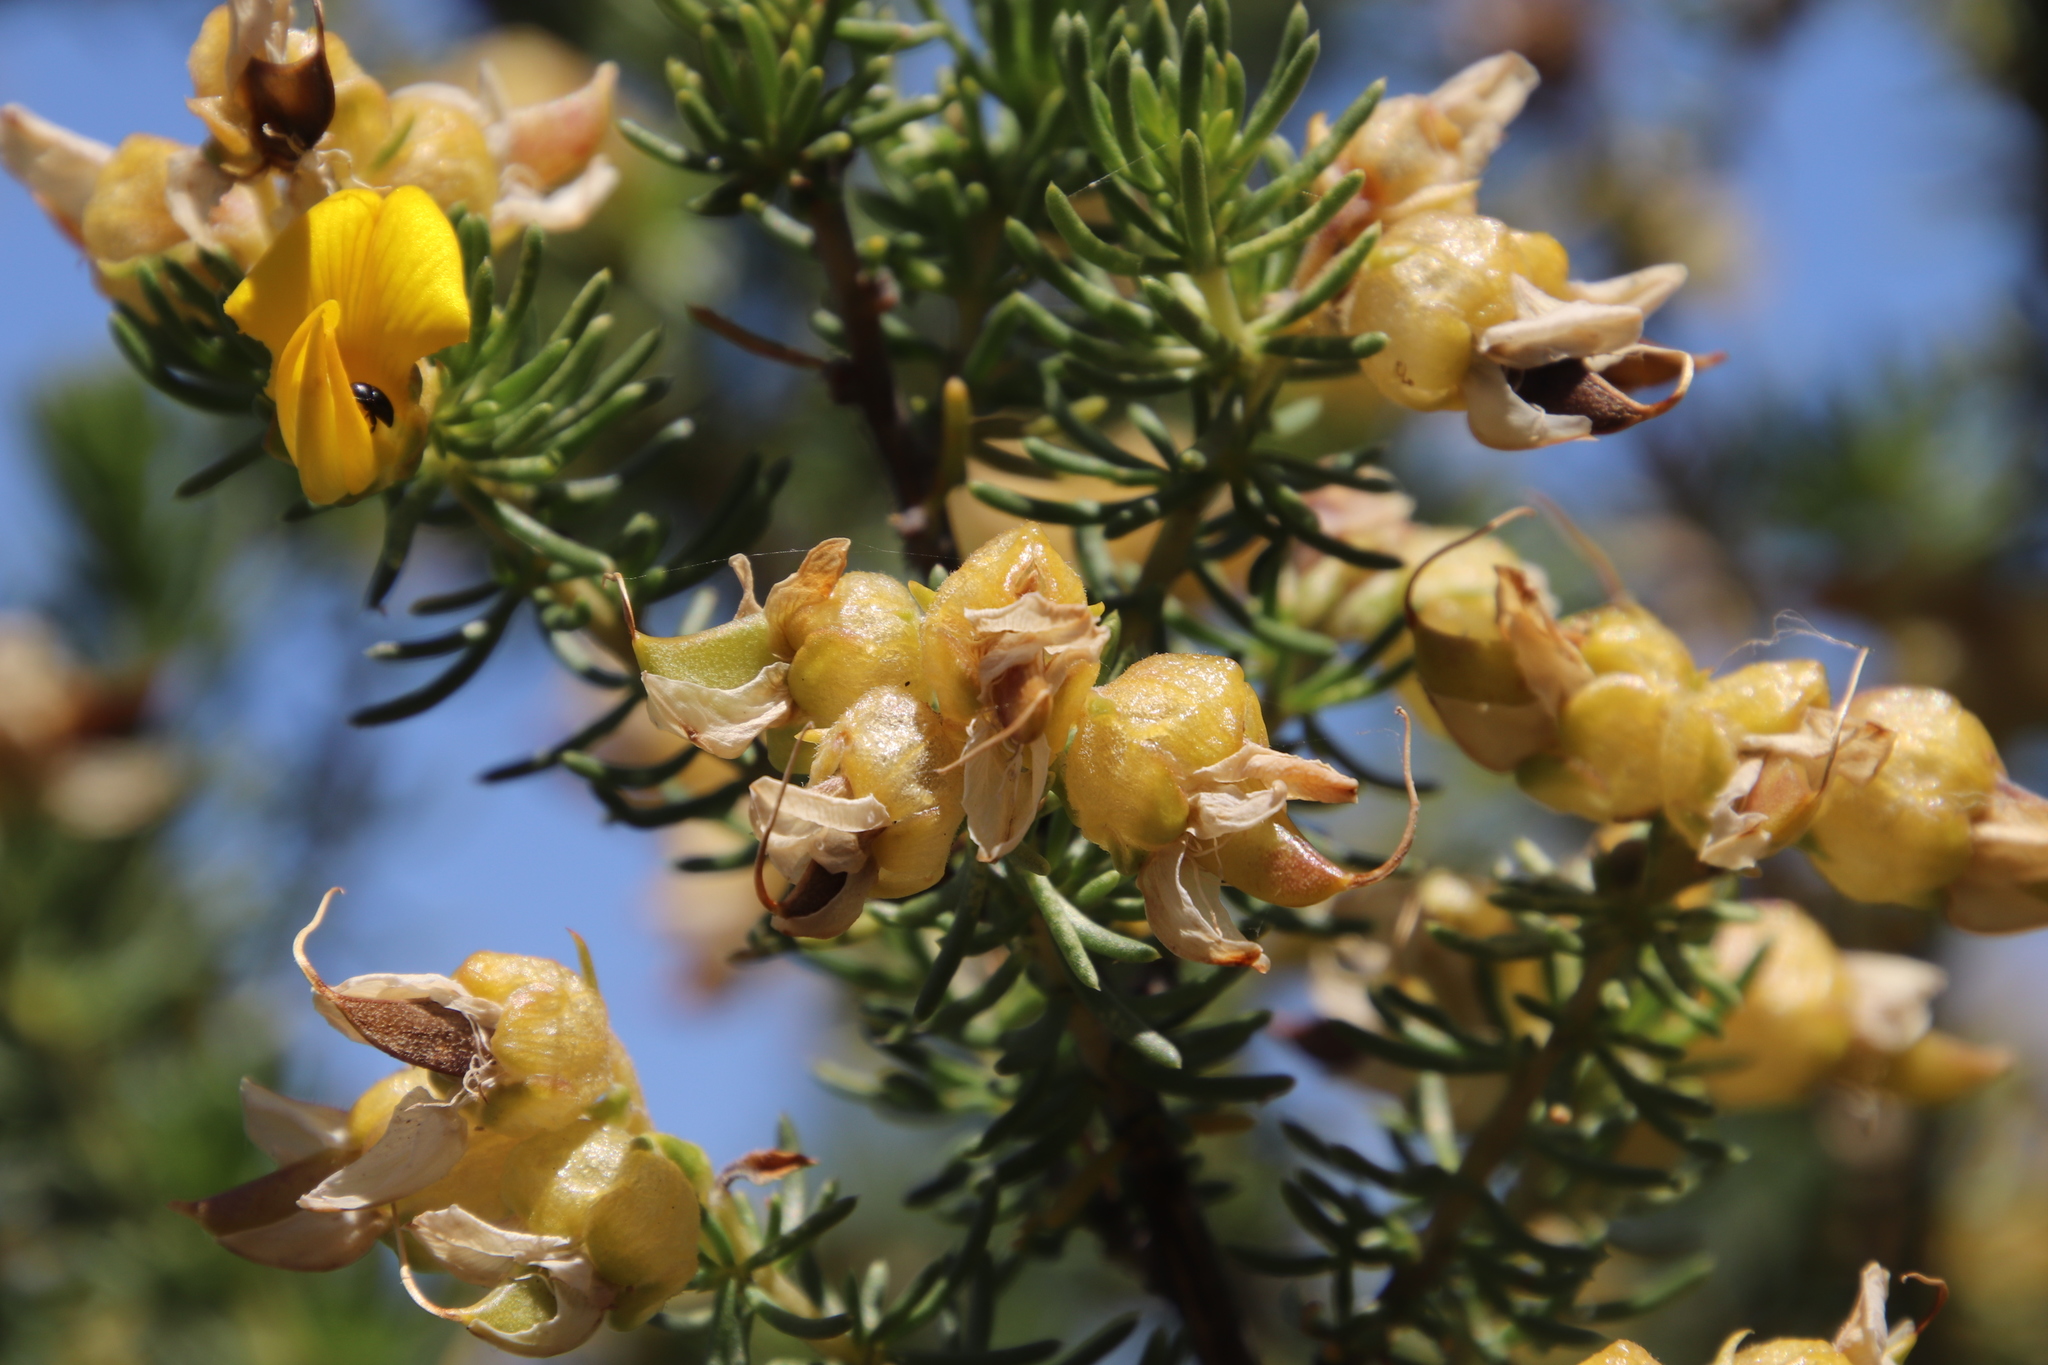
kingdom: Plantae
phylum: Tracheophyta
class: Magnoliopsida
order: Fabales
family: Fabaceae
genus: Aspalathus
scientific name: Aspalathus excelsa
